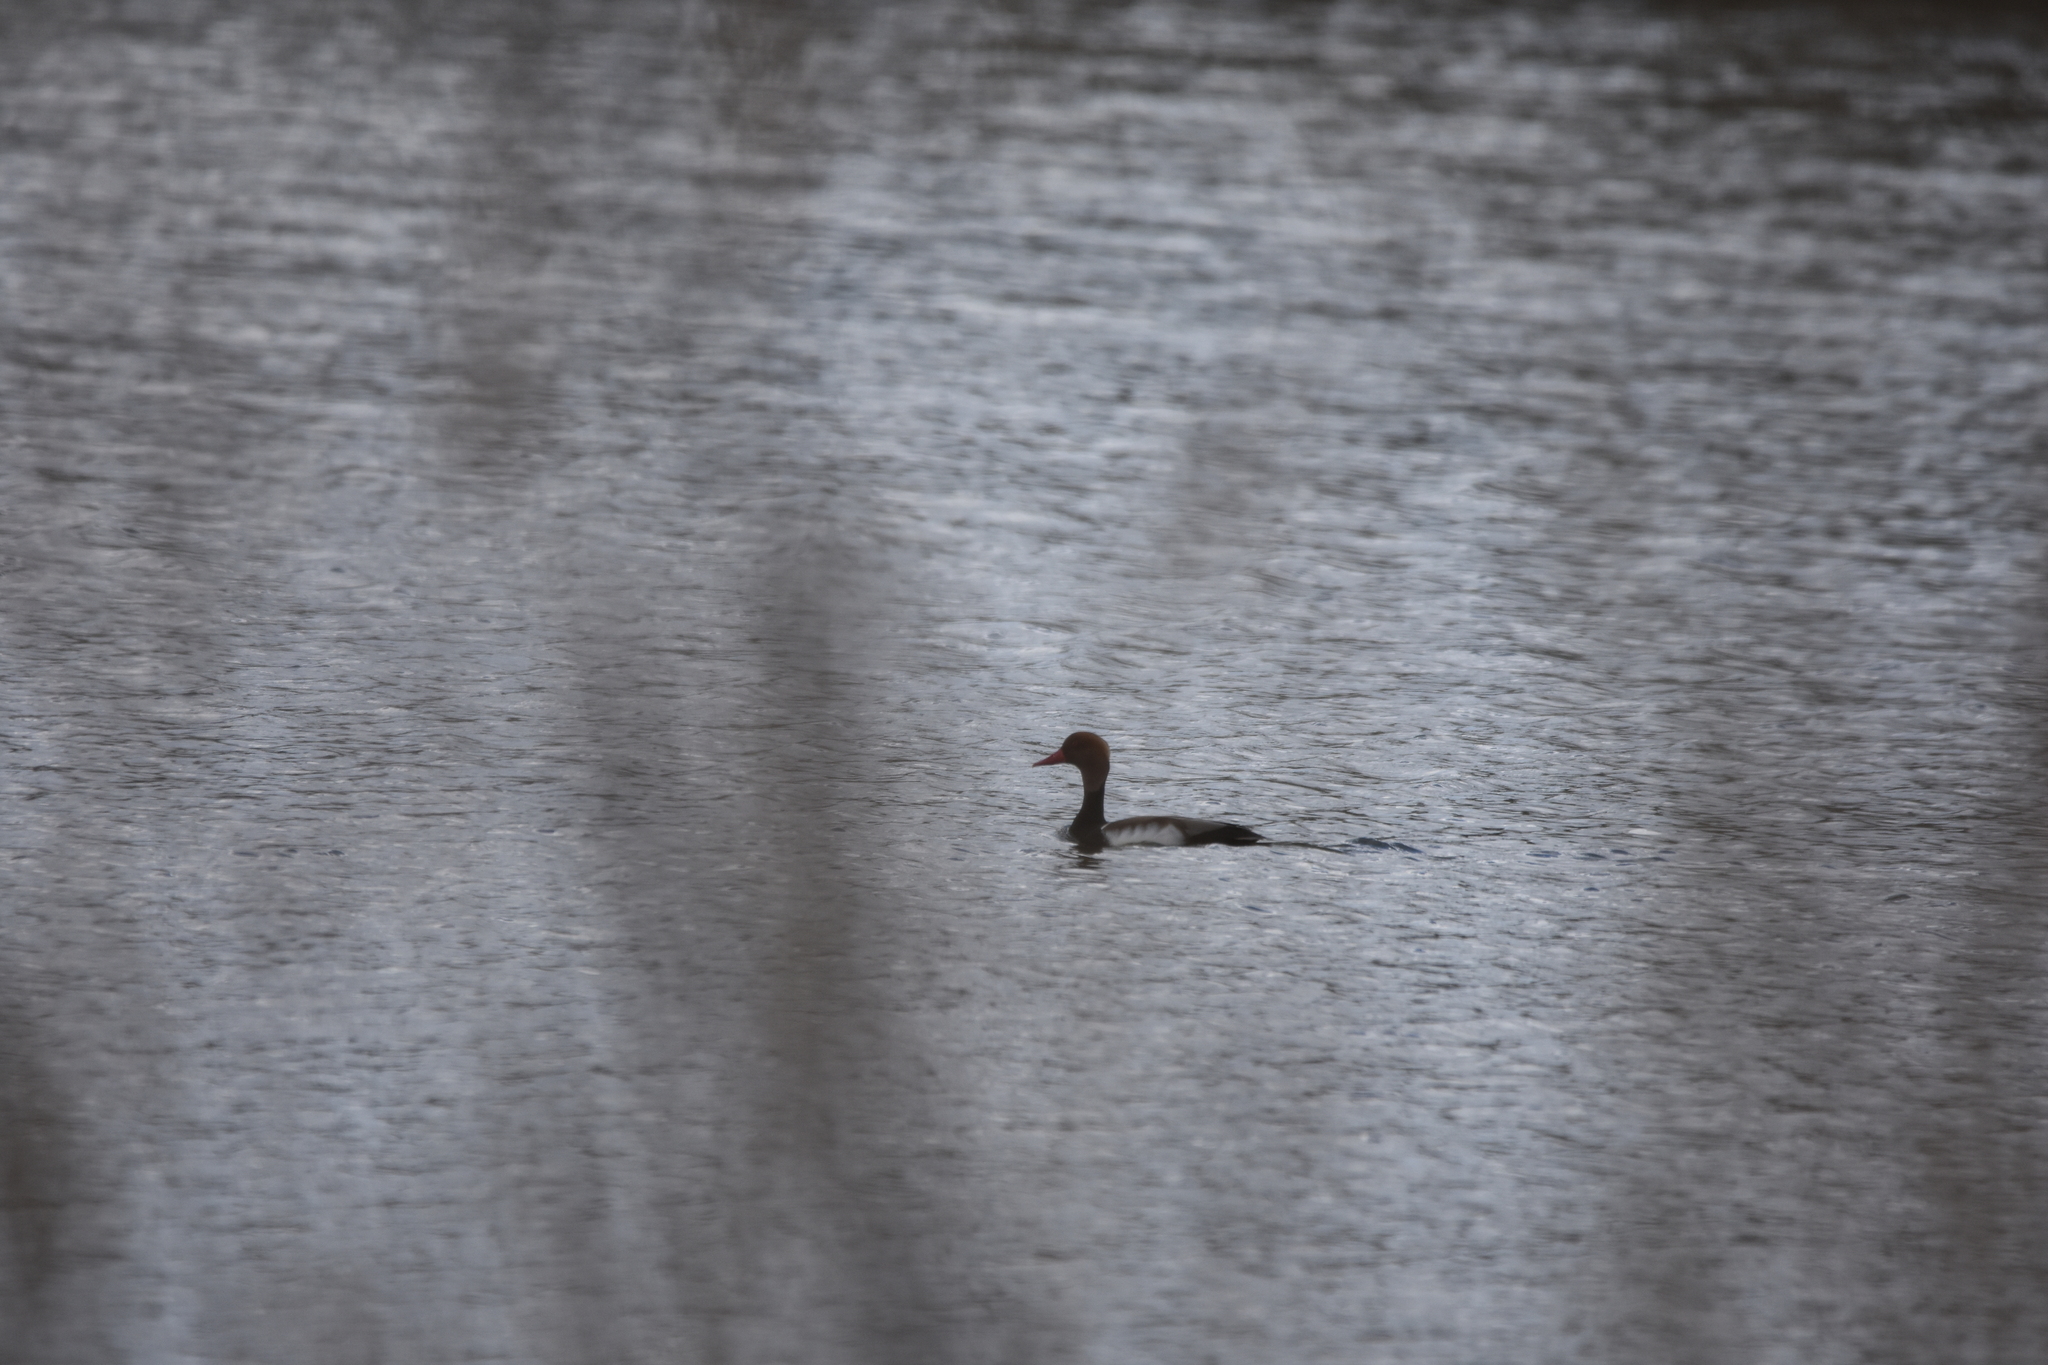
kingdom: Animalia
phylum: Chordata
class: Aves
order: Anseriformes
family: Anatidae
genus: Netta
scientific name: Netta rufina
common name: Red-crested pochard
